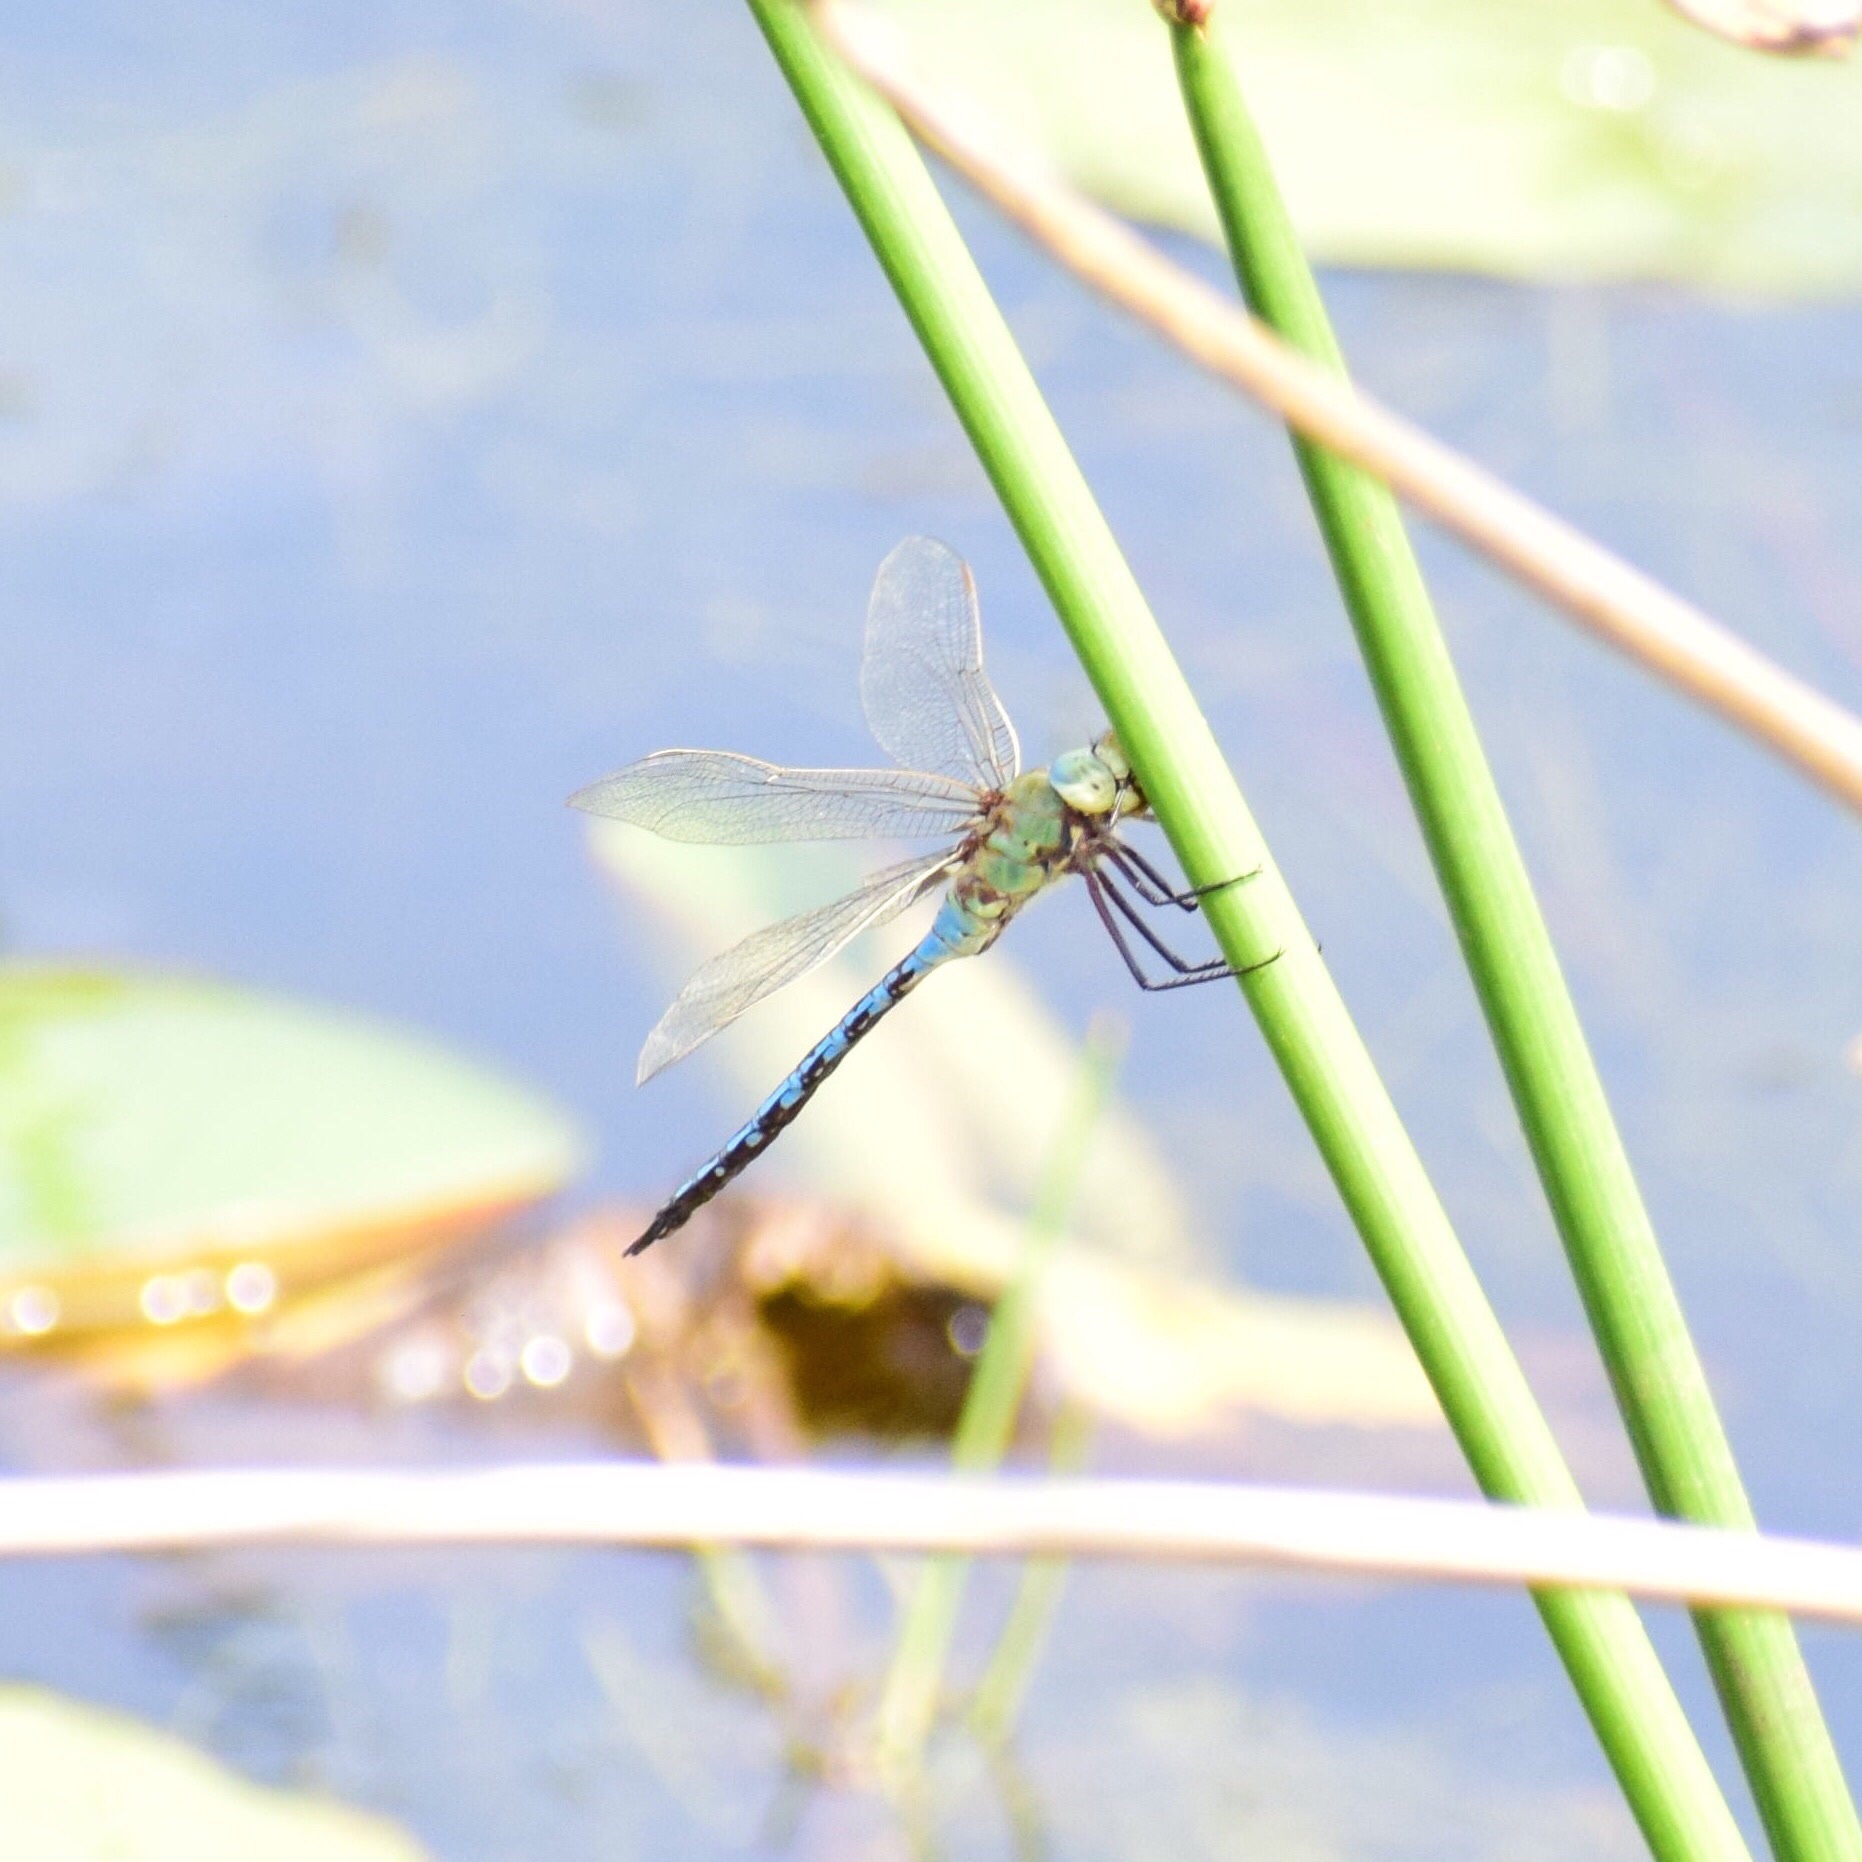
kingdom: Animalia
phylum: Arthropoda
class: Insecta
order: Odonata
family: Aeshnidae
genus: Anax
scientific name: Anax imperator
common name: Emperor dragonfly
